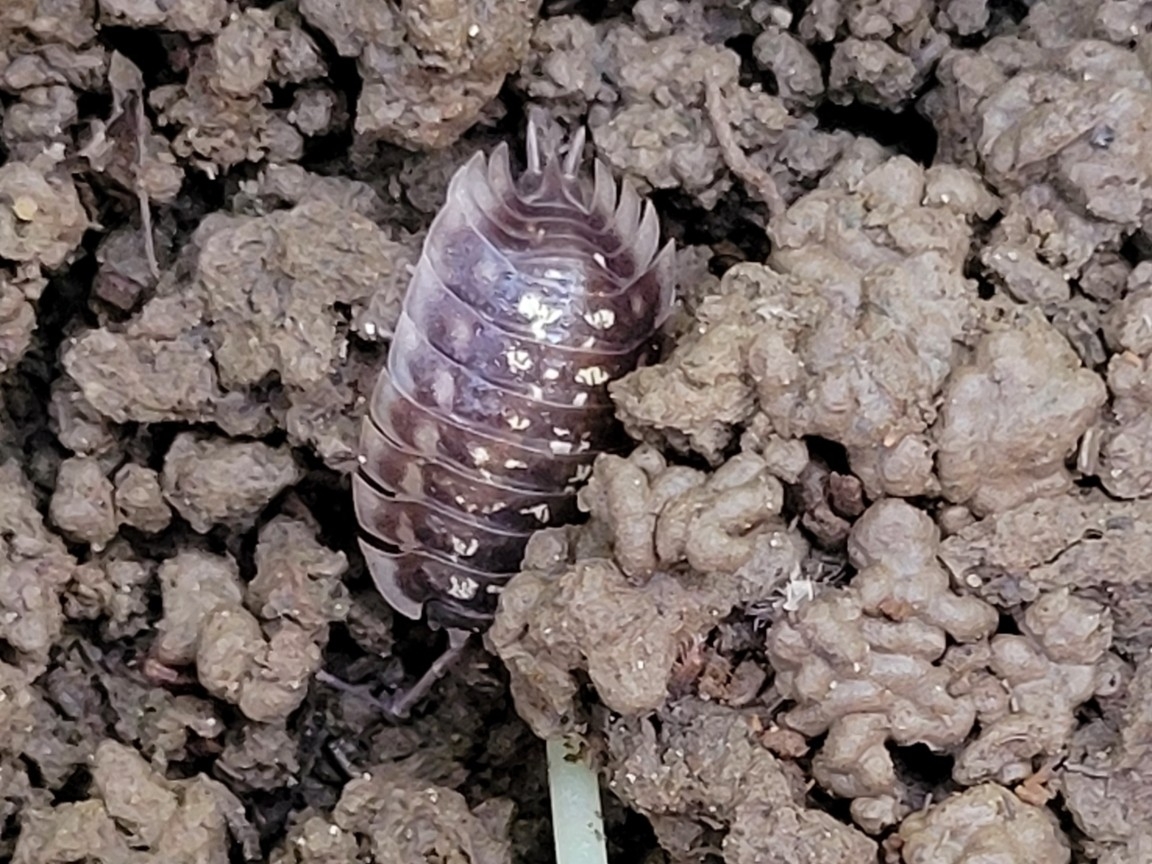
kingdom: Animalia
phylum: Arthropoda
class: Malacostraca
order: Isopoda
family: Oniscidae
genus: Oniscus
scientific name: Oniscus asellus
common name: Common shiny woodlouse
